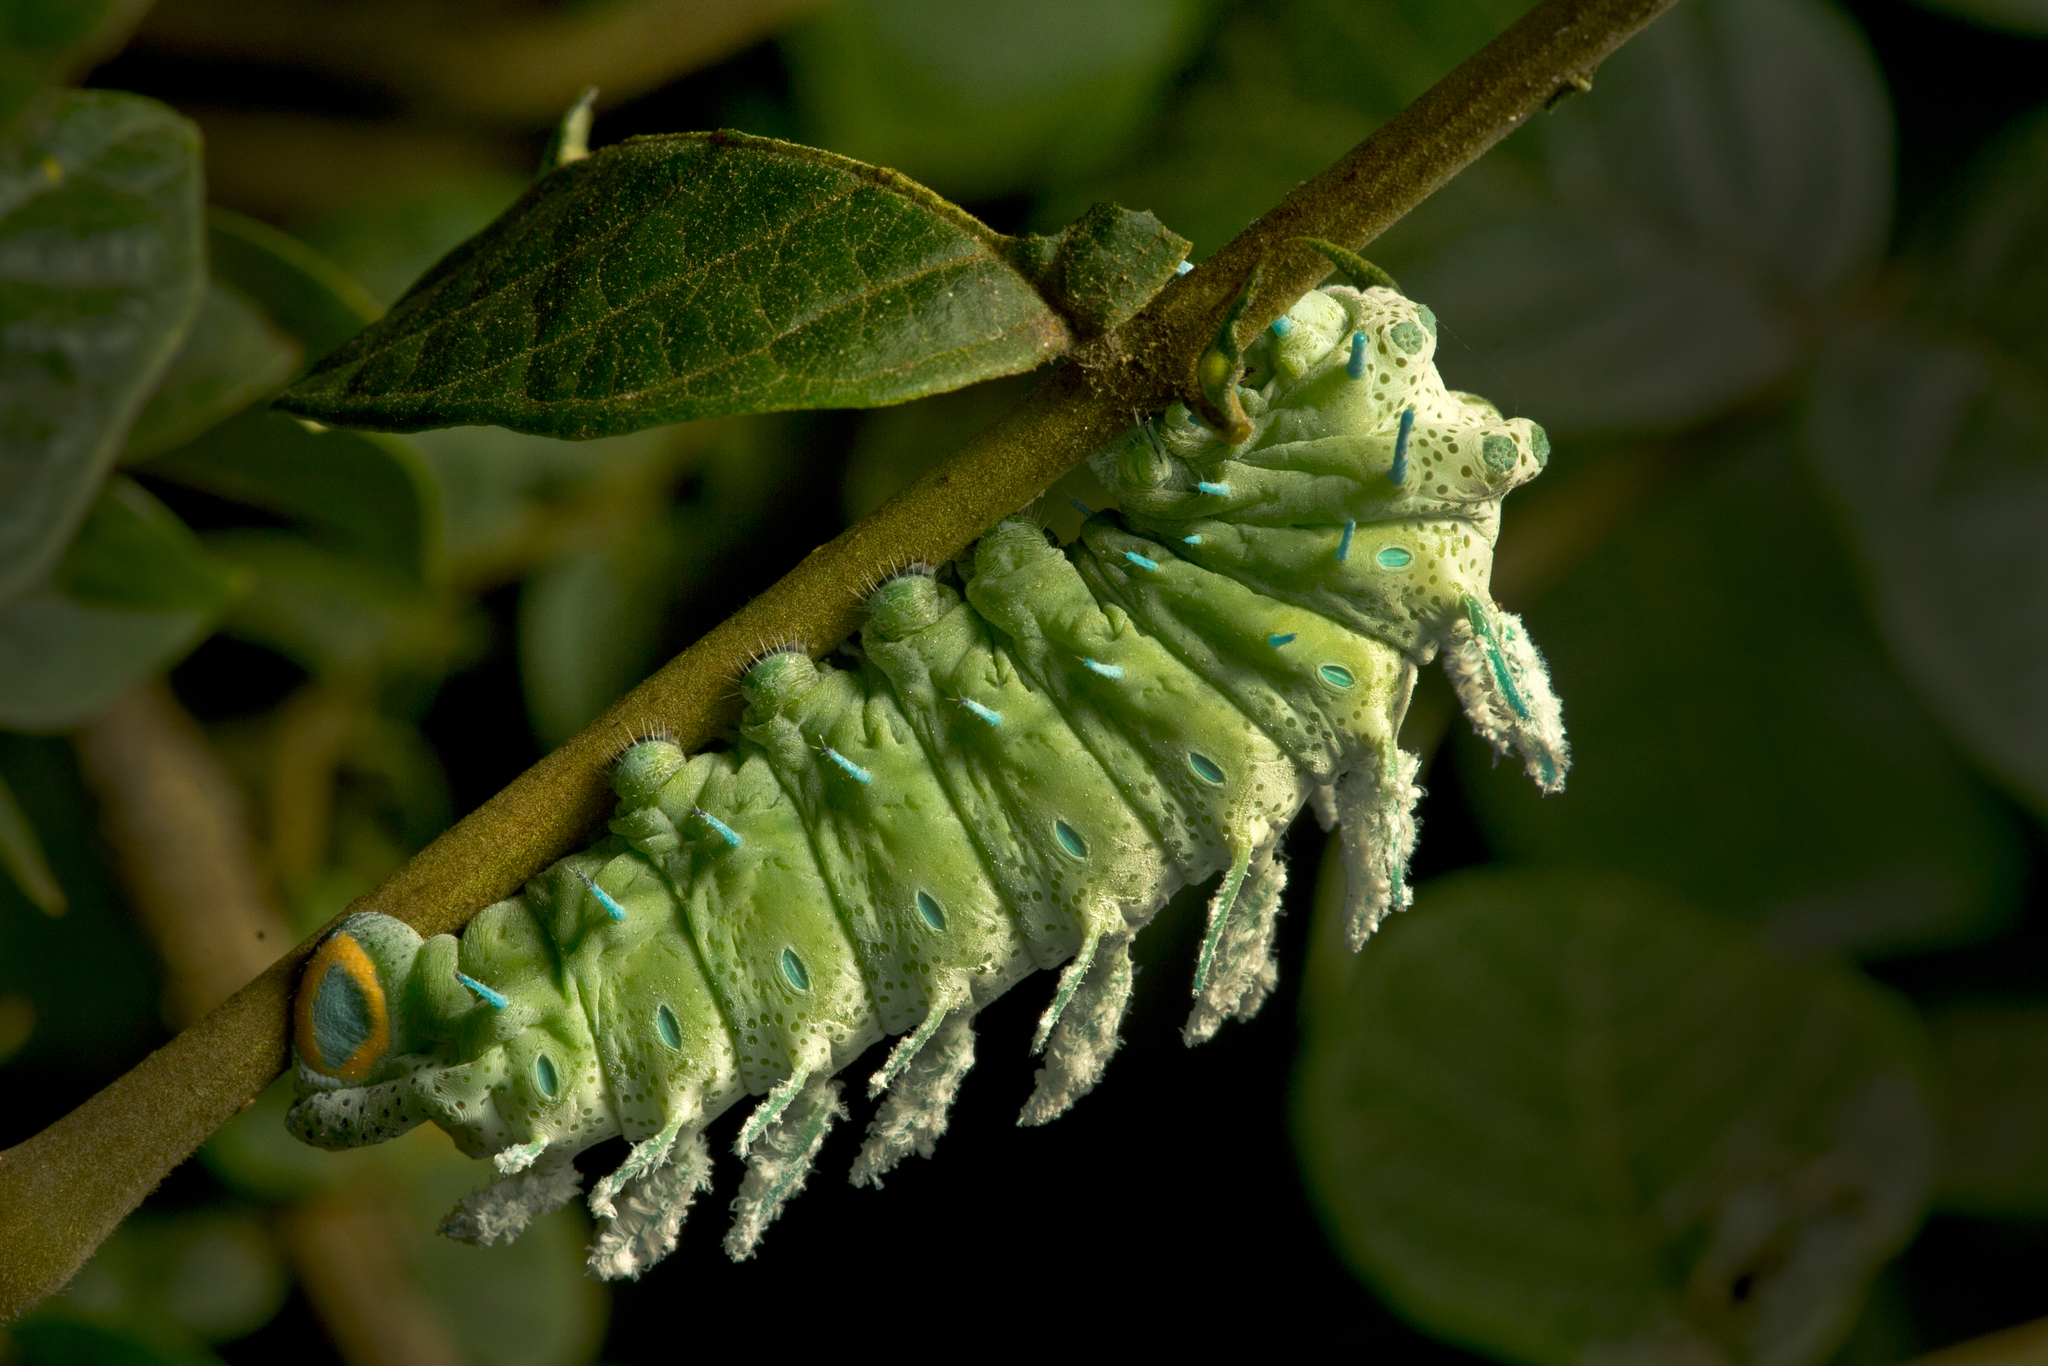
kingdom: Animalia
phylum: Arthropoda
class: Insecta
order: Lepidoptera
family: Saturniidae
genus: Attacus
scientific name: Attacus taprobanis
